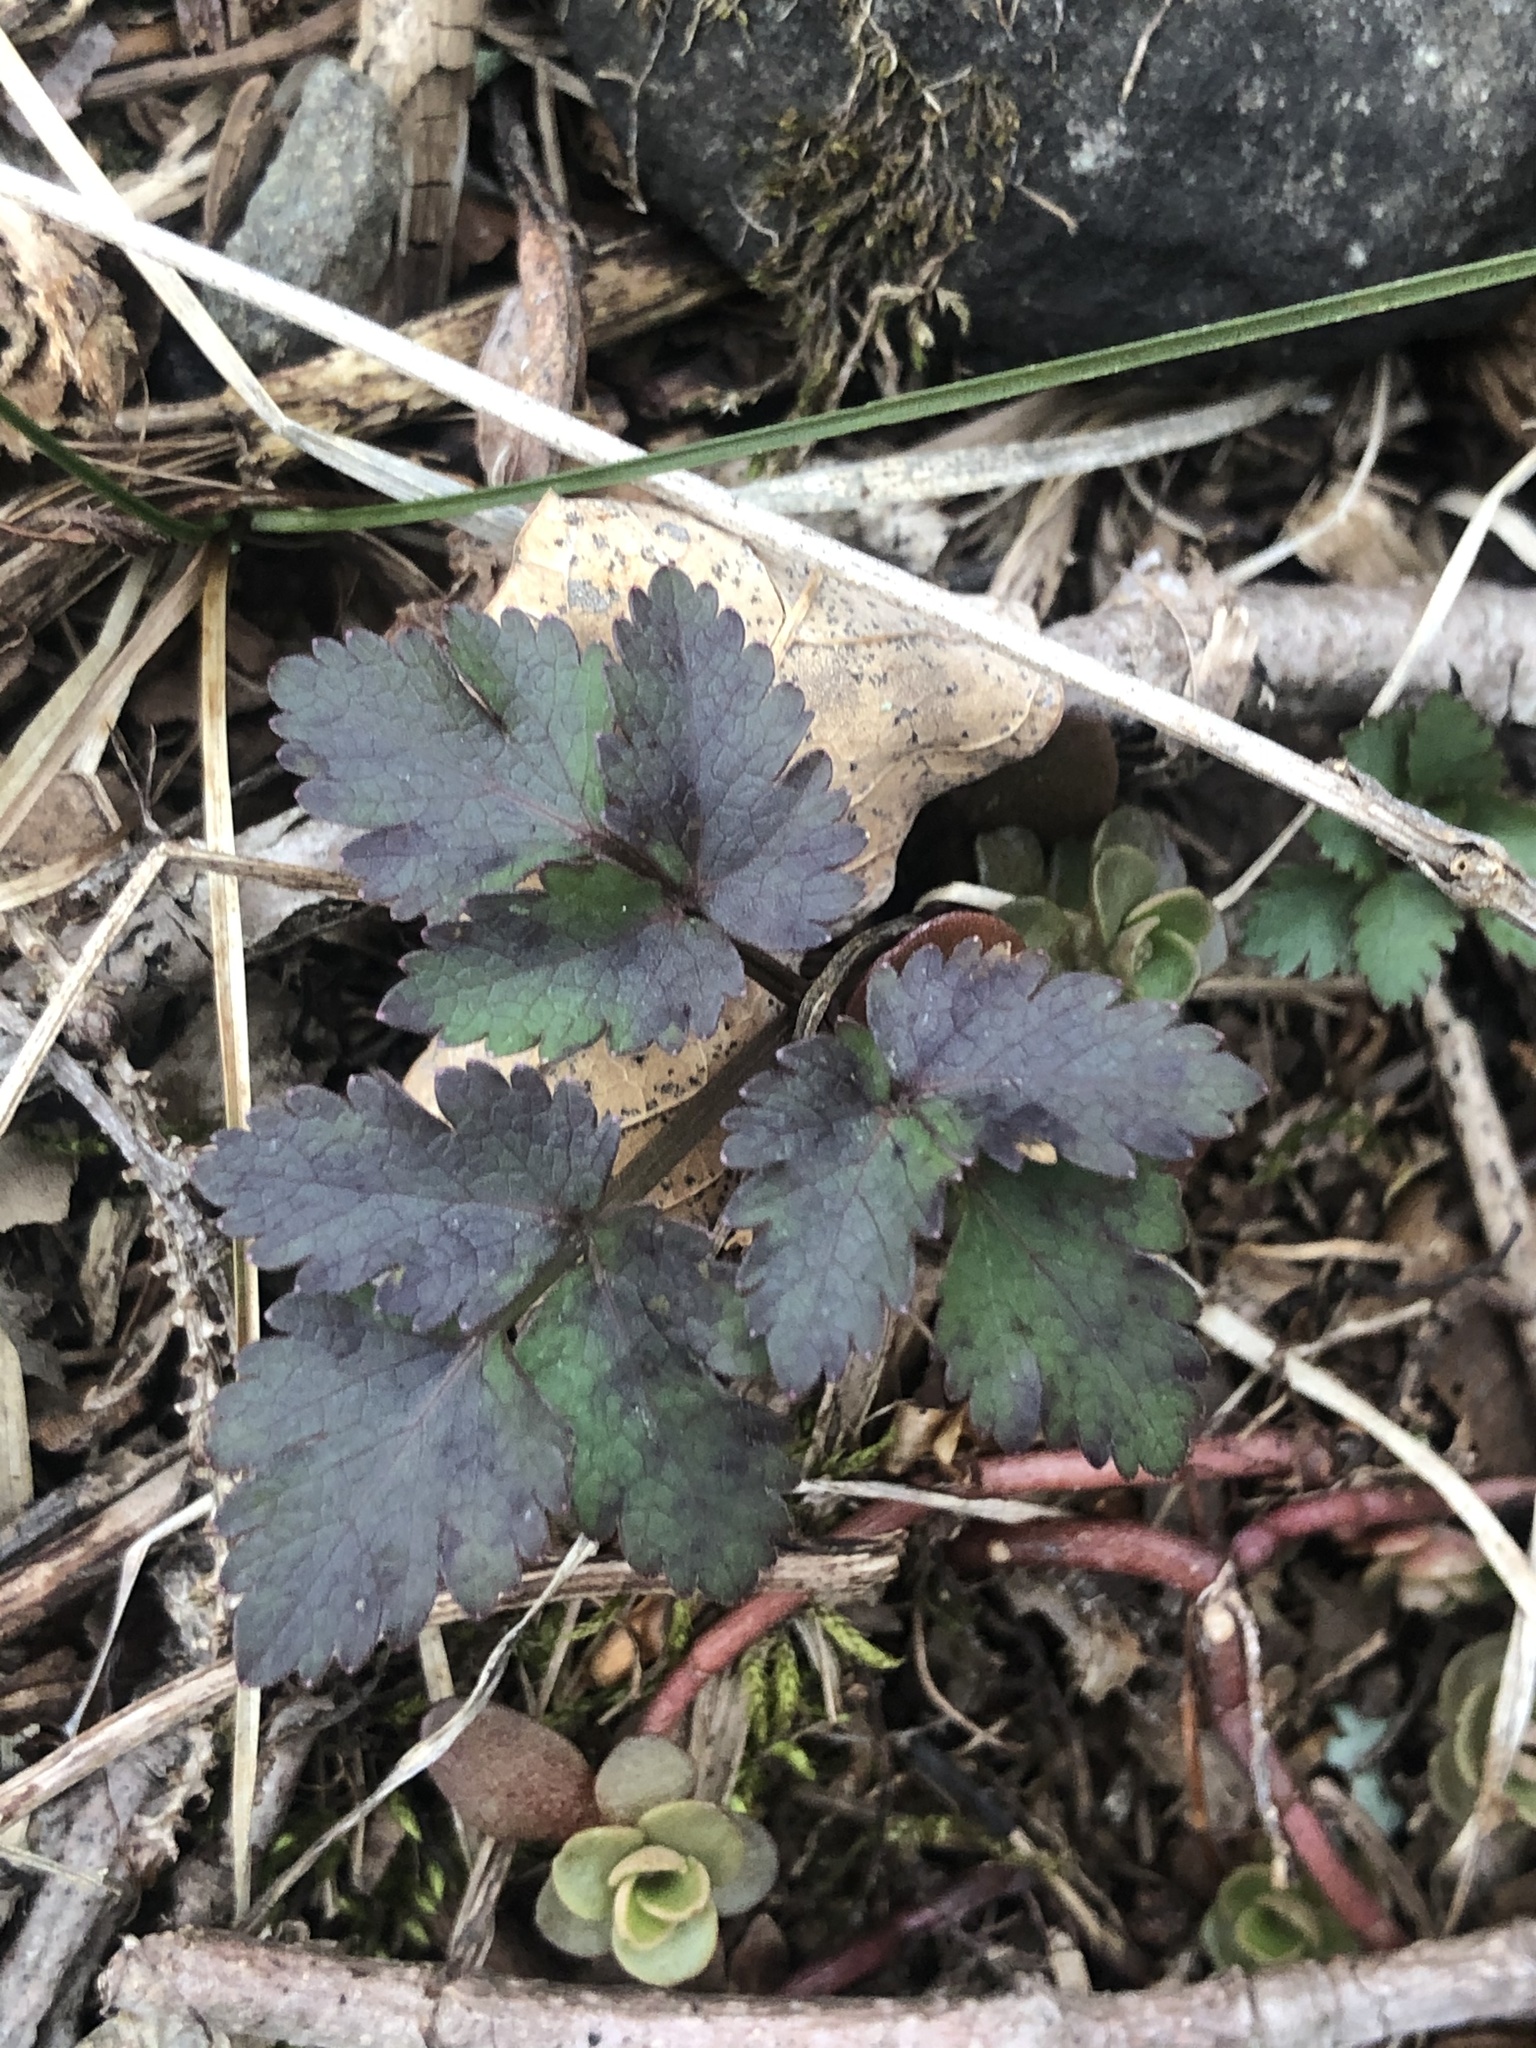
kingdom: Plantae
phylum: Tracheophyta
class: Magnoliopsida
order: Apiales
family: Apiaceae
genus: Angelica
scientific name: Angelica triquinata
